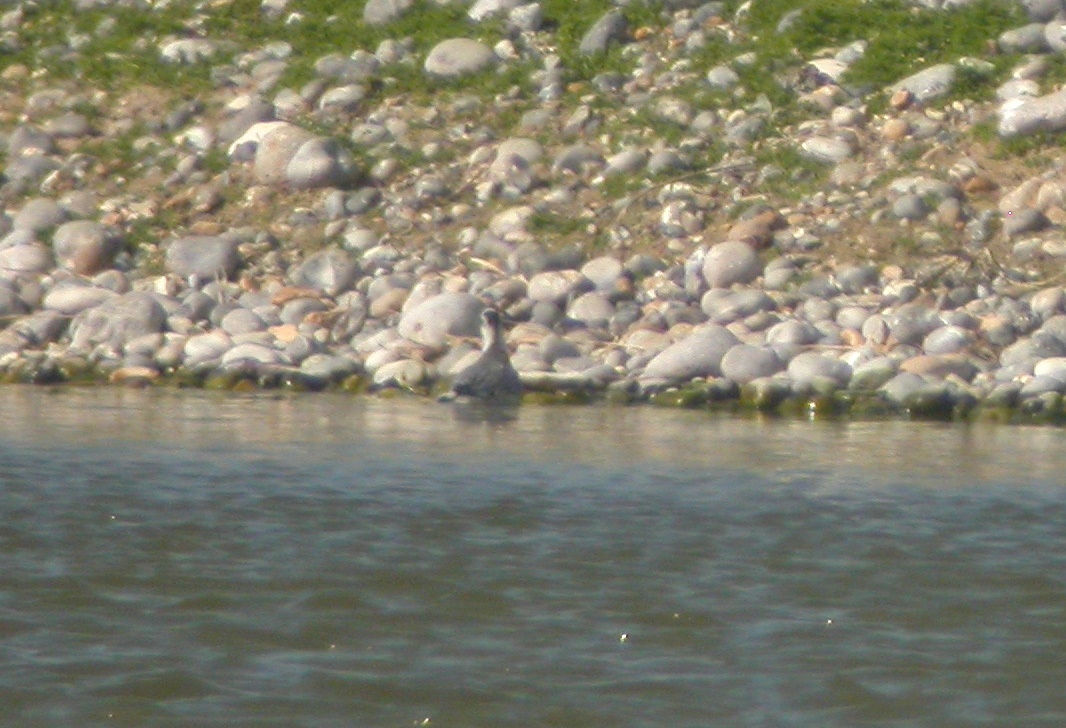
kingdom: Animalia
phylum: Chordata
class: Aves
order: Charadriiformes
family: Scolopacidae
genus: Phalaropus
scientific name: Phalaropus fulicarius
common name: Red phalarope
